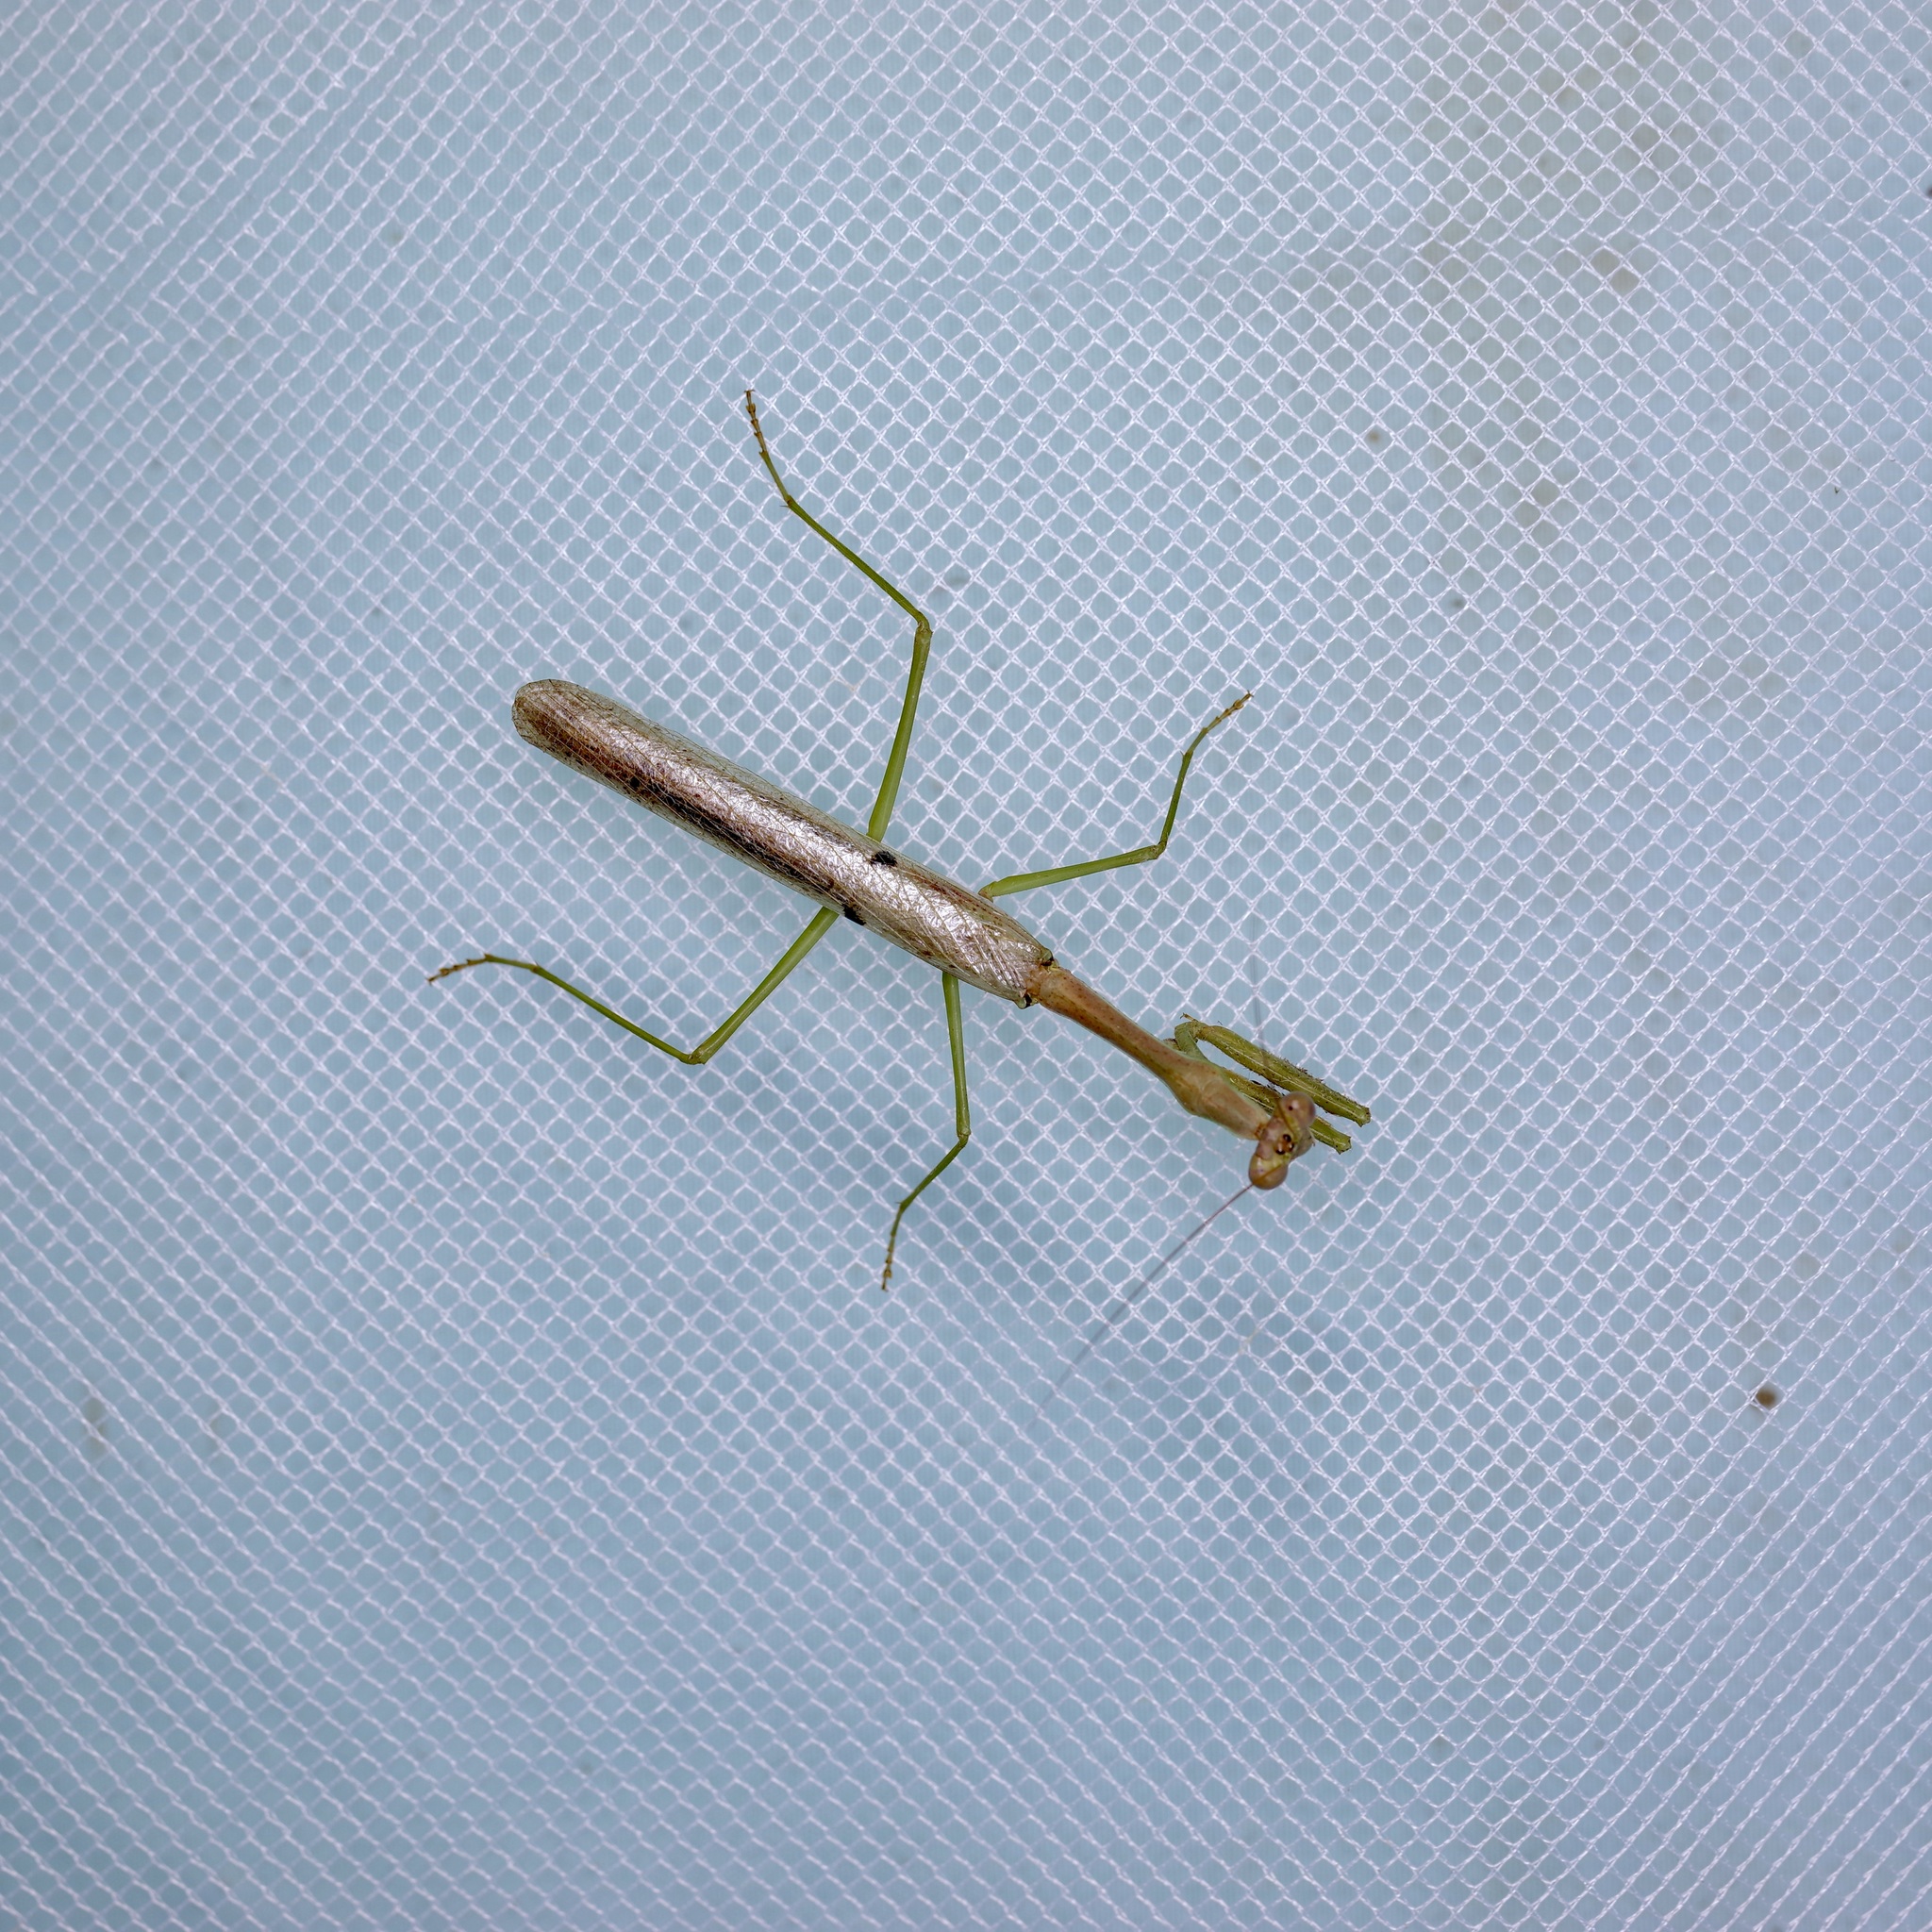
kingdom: Animalia
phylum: Arthropoda
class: Insecta
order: Mantodea
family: Mantidae
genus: Stagmomantis
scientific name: Stagmomantis carolina
